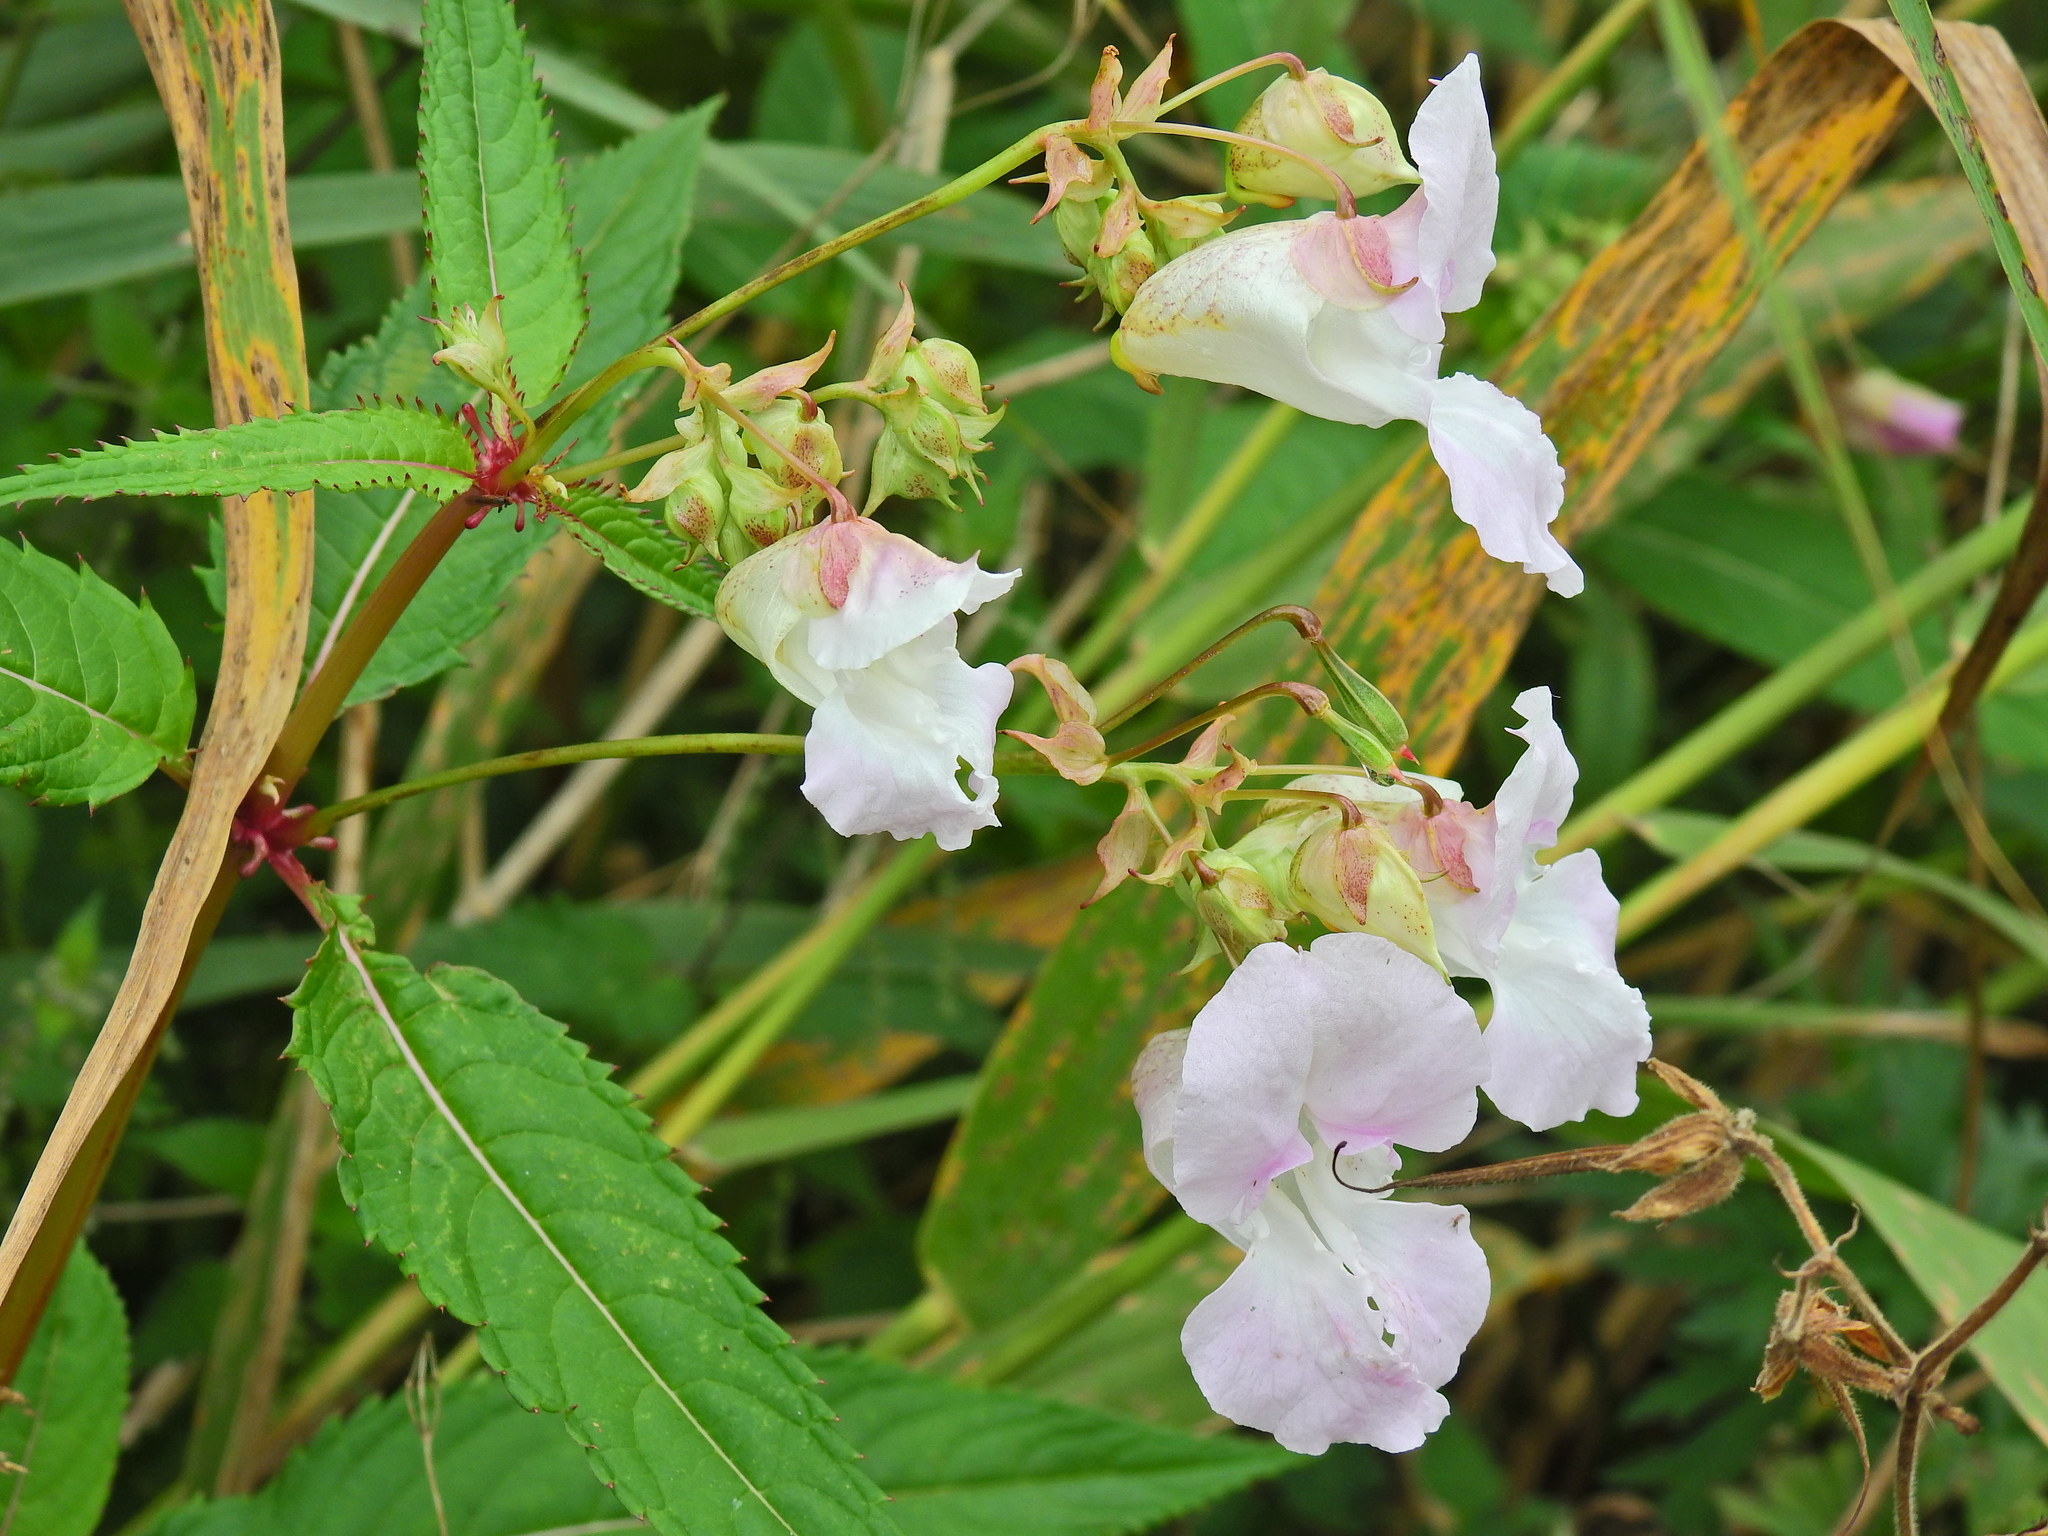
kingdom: Plantae
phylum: Tracheophyta
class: Magnoliopsida
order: Ericales
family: Balsaminaceae
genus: Impatiens
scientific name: Impatiens glandulifera
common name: Himalayan balsam
